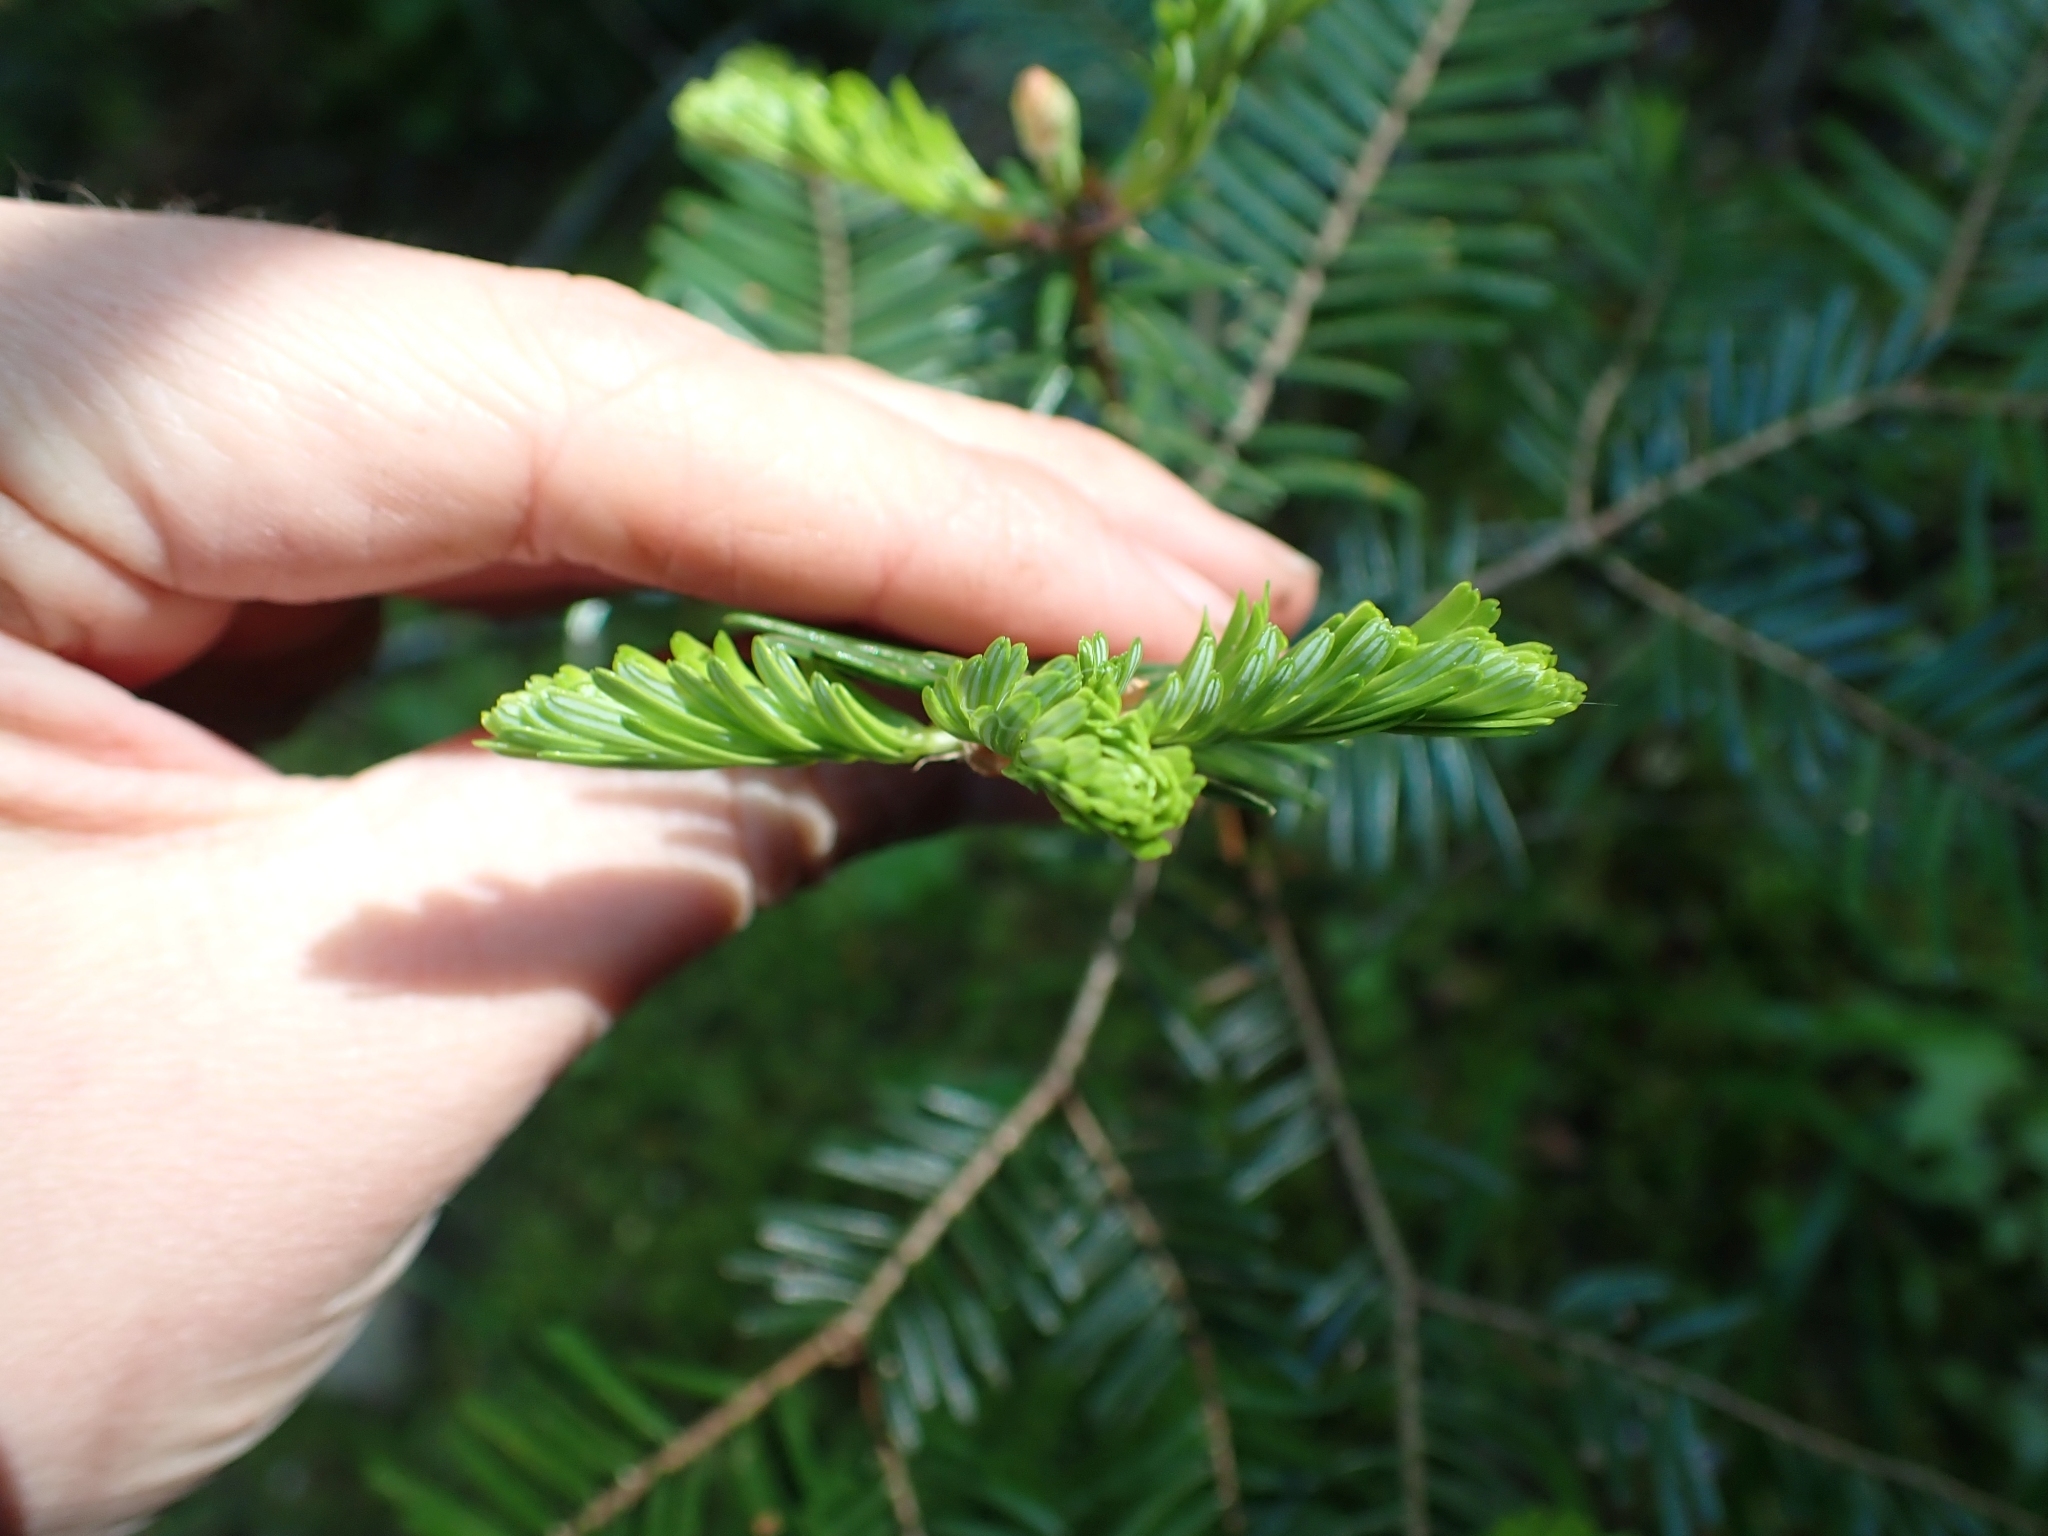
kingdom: Plantae
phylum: Tracheophyta
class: Pinopsida
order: Pinales
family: Pinaceae
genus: Abies
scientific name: Abies grandis
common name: Giant fir
